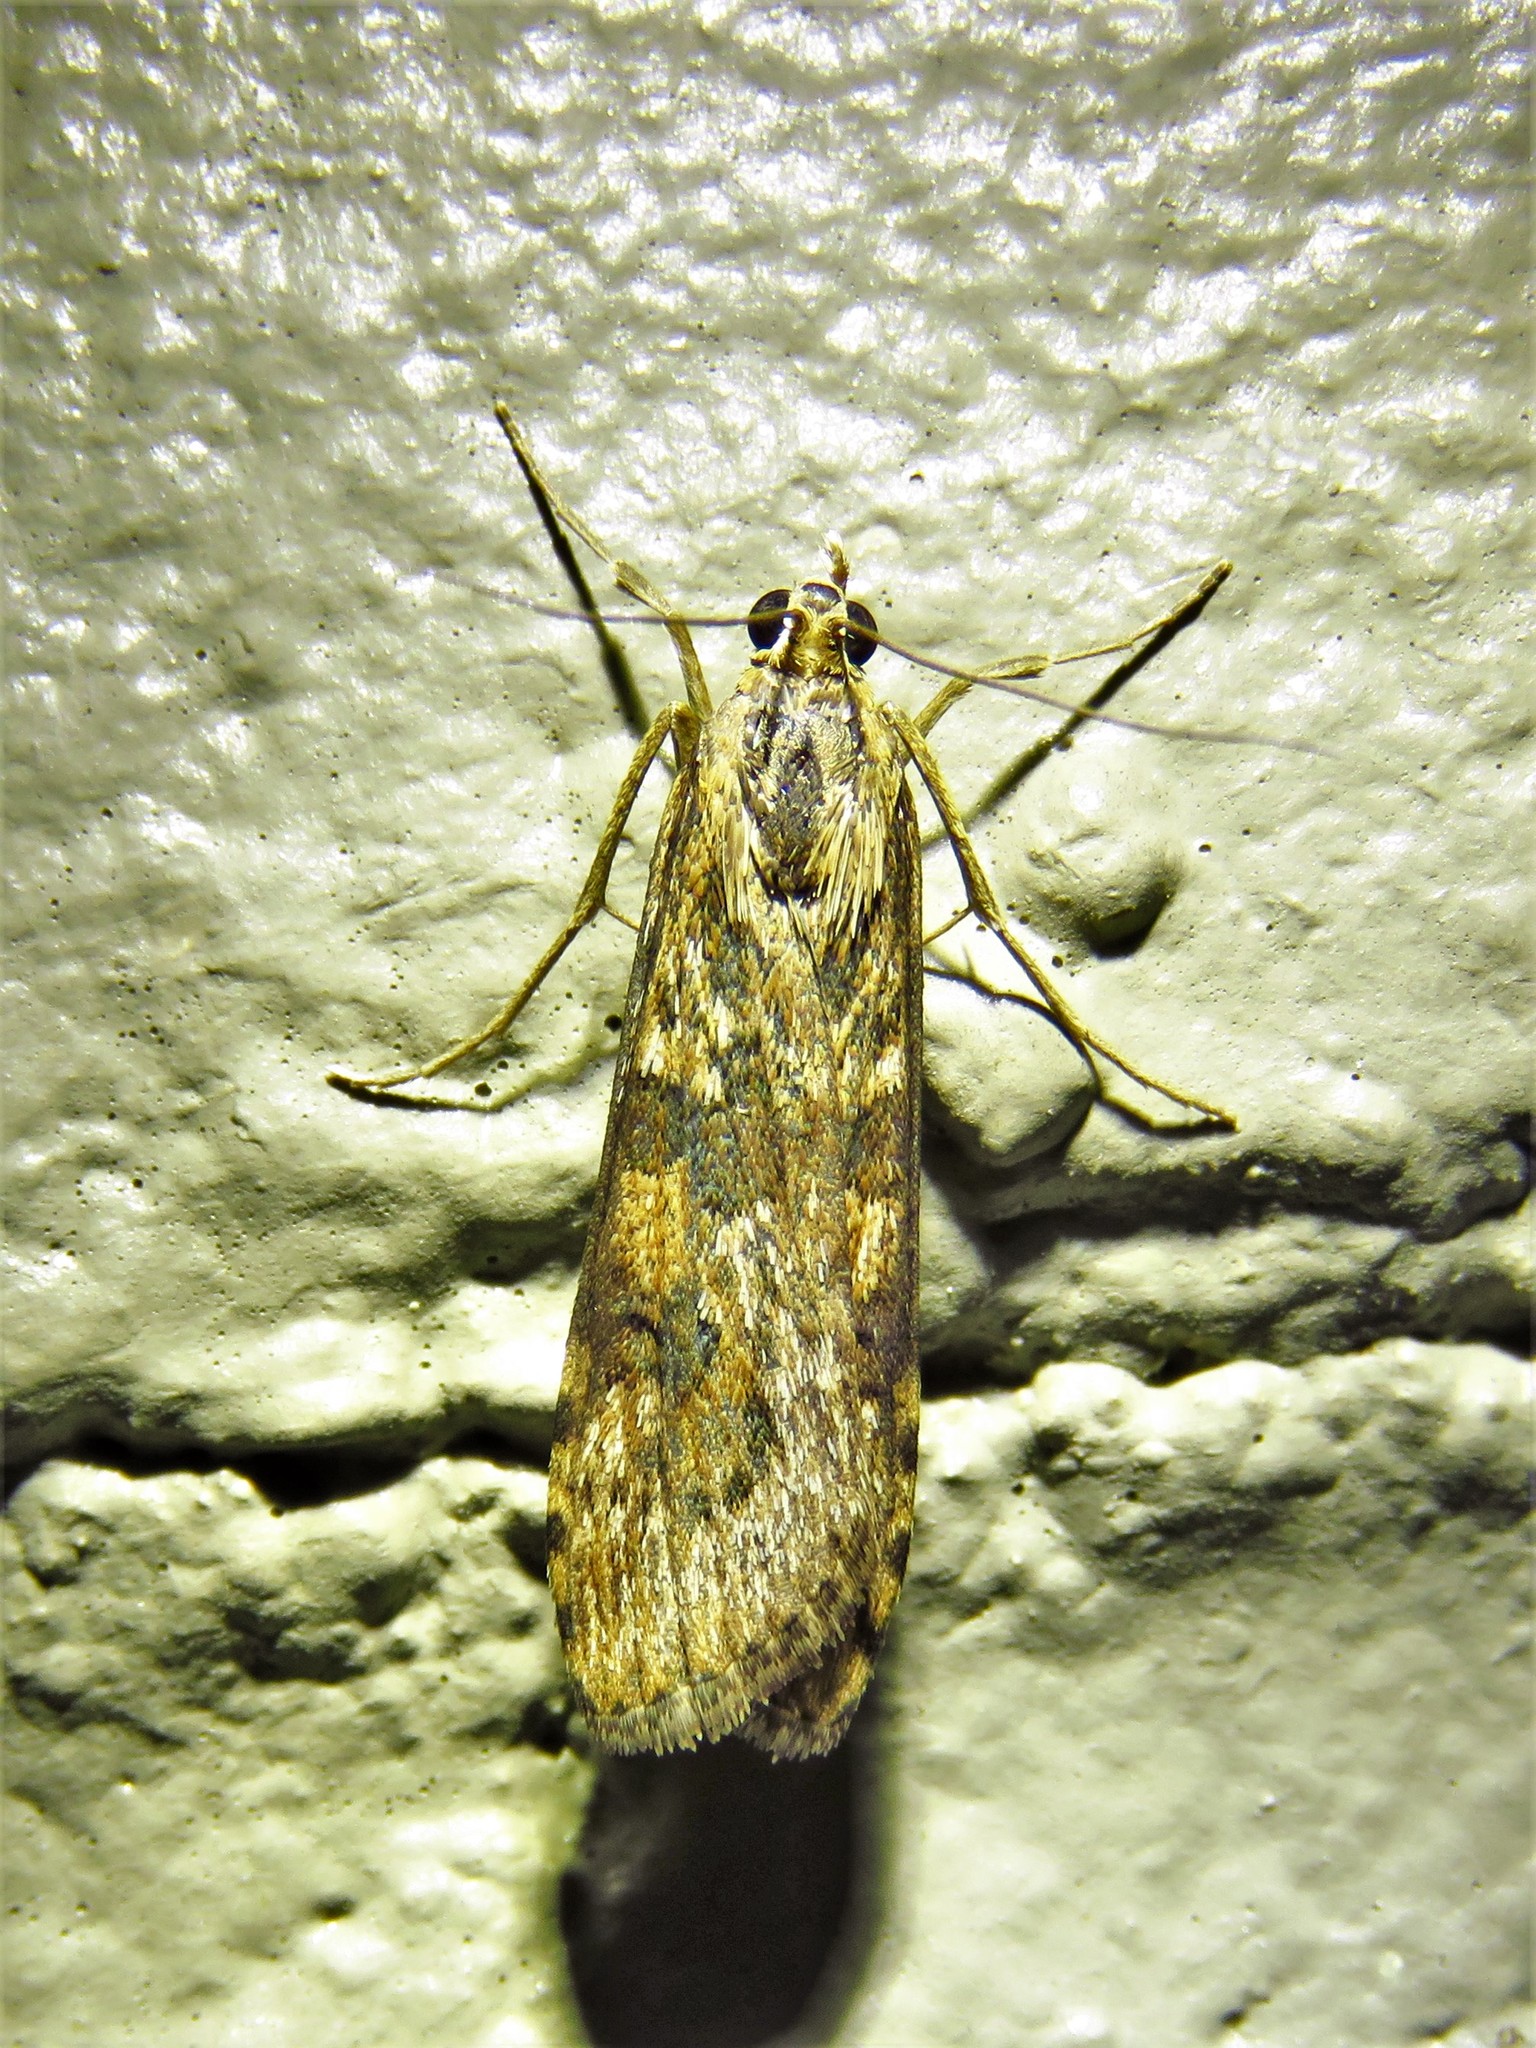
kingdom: Animalia
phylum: Arthropoda
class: Insecta
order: Lepidoptera
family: Crambidae
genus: Nomophila
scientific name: Nomophila nearctica
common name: American rush veneer
